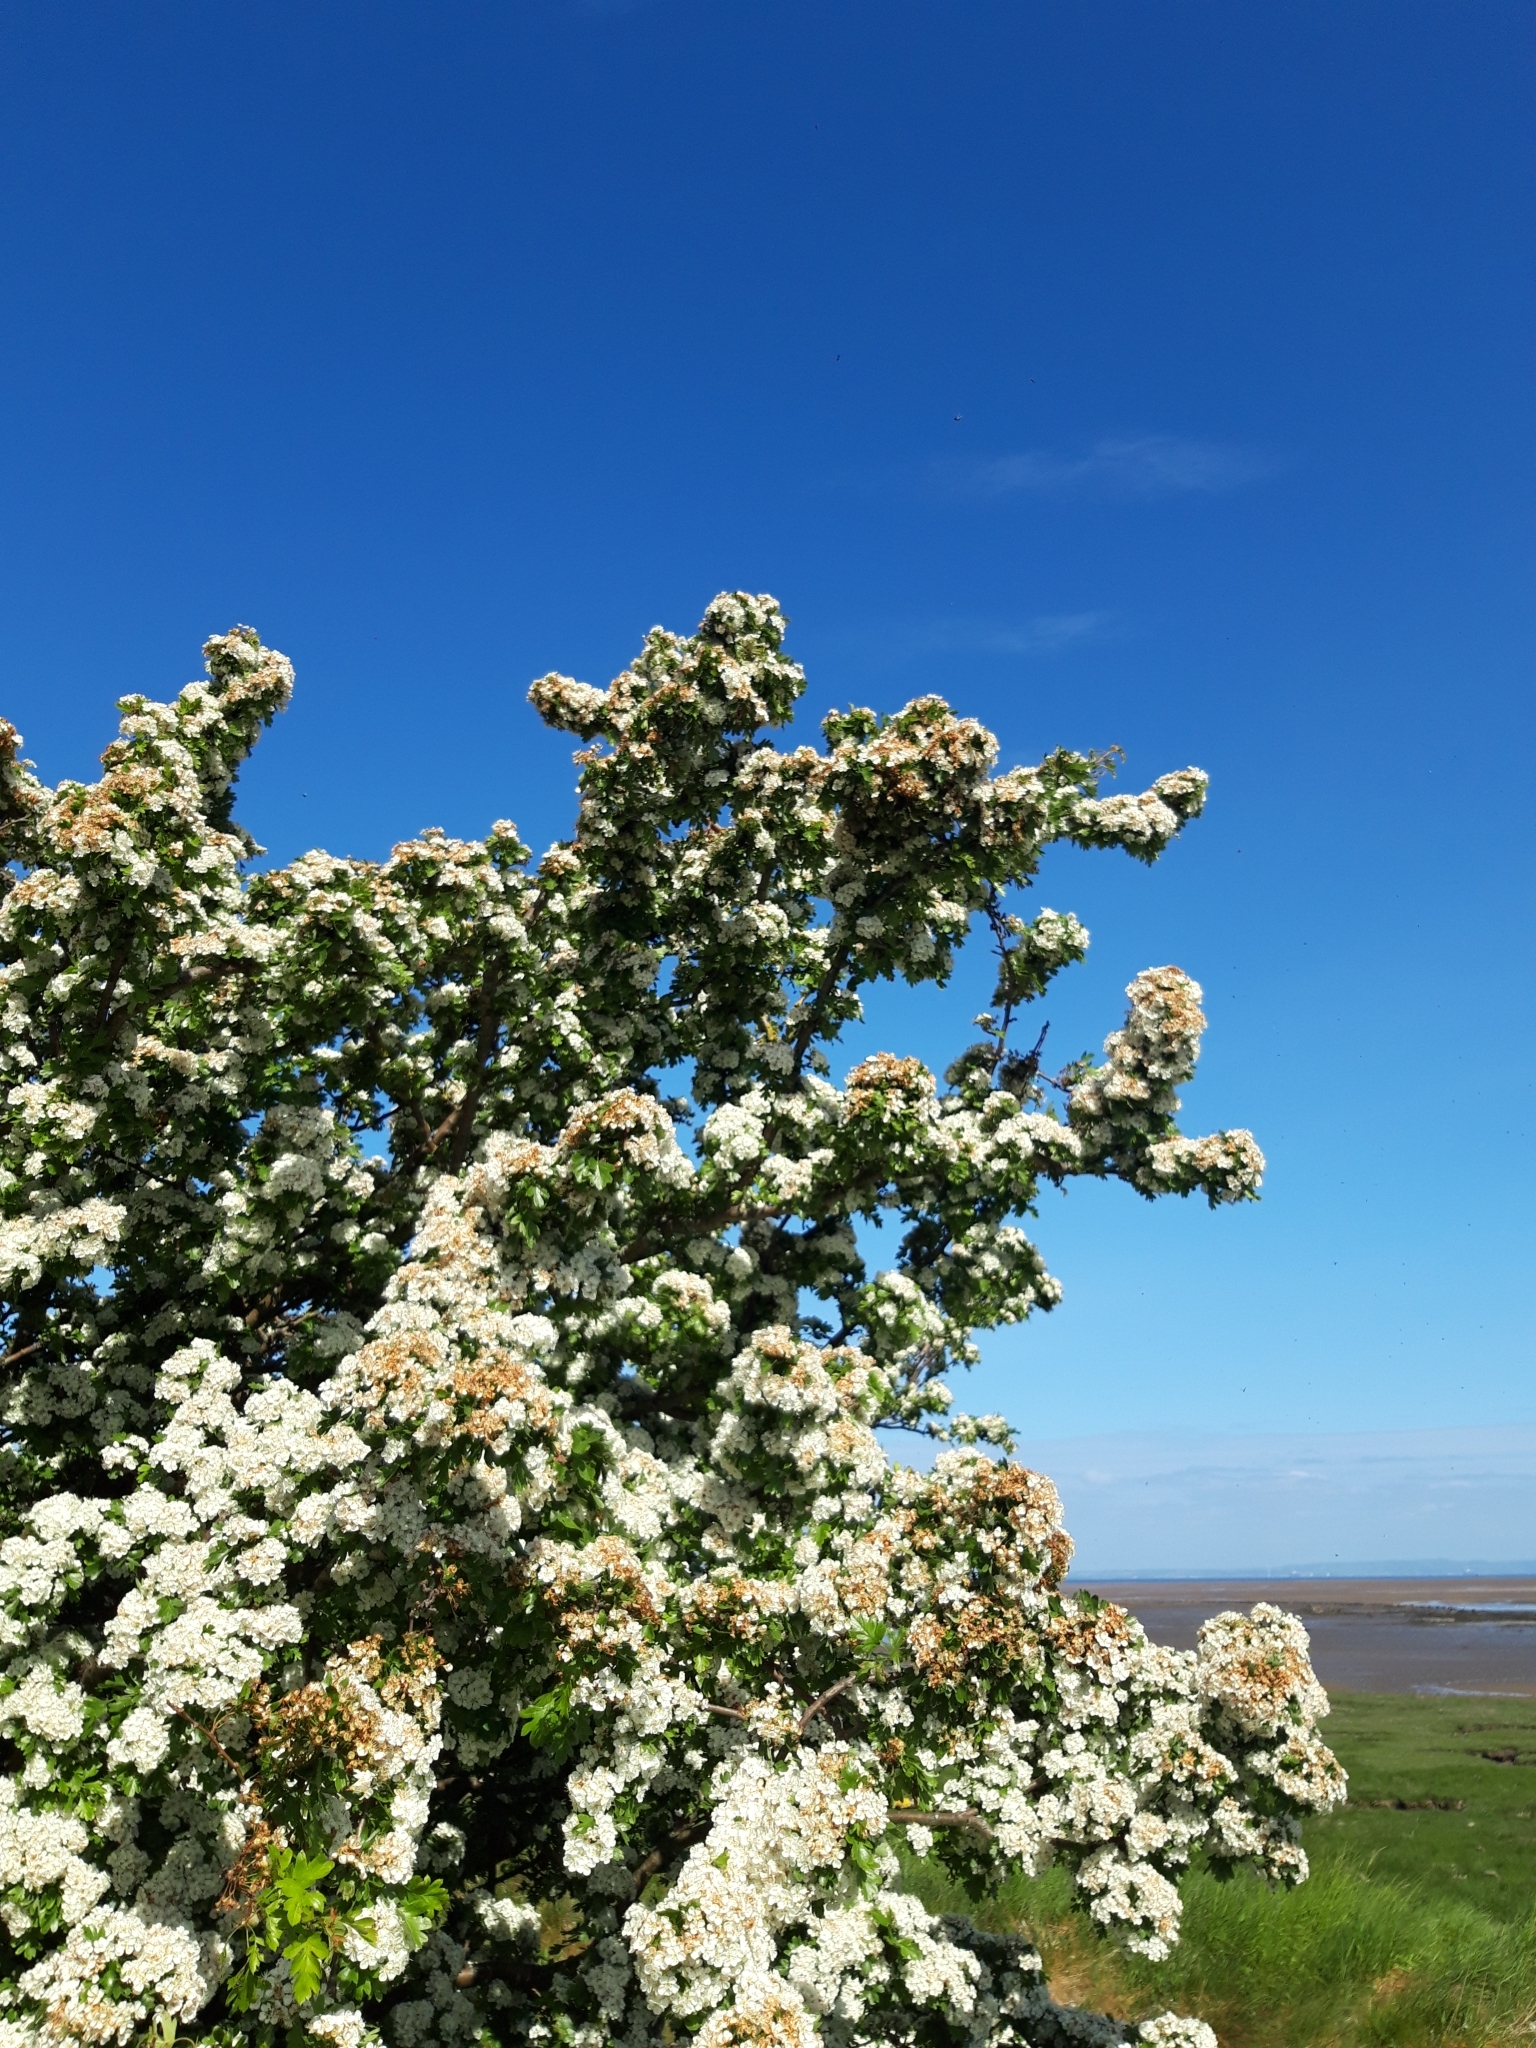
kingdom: Plantae
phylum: Tracheophyta
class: Magnoliopsida
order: Rosales
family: Rosaceae
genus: Crataegus
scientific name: Crataegus monogyna
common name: Hawthorn
